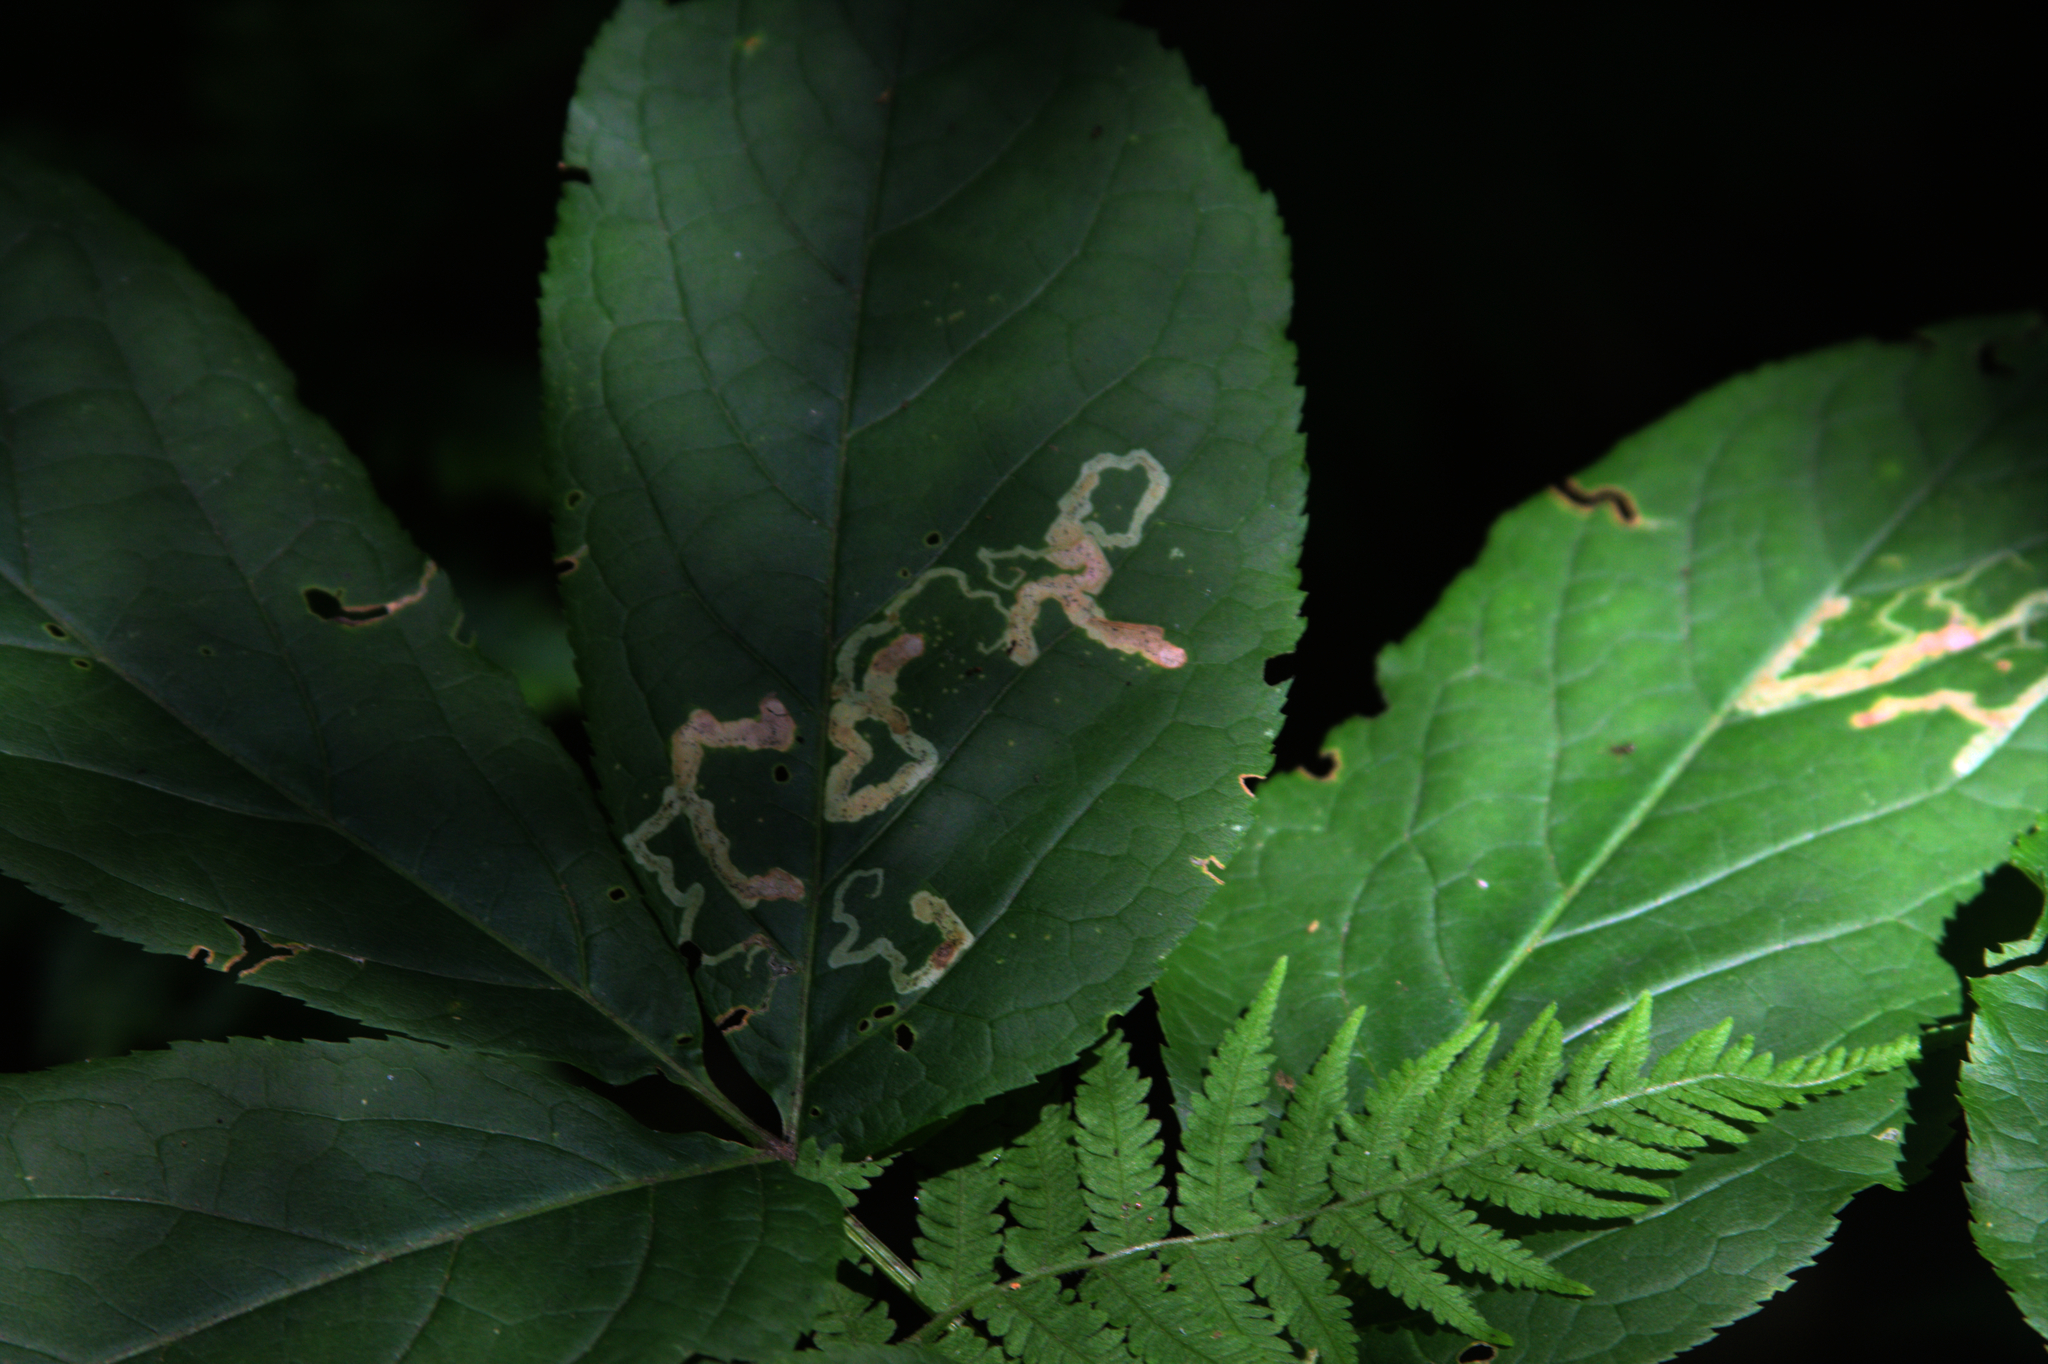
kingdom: Plantae
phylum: Tracheophyta
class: Magnoliopsida
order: Apiales
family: Araliaceae
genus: Aralia
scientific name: Aralia nudicaulis
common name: Wild sarsaparilla
